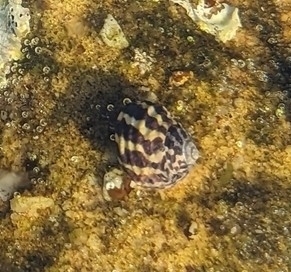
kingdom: Animalia
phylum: Mollusca
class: Gastropoda
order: Trochida
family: Trochidae
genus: Austrocochlea
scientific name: Austrocochlea porcata
